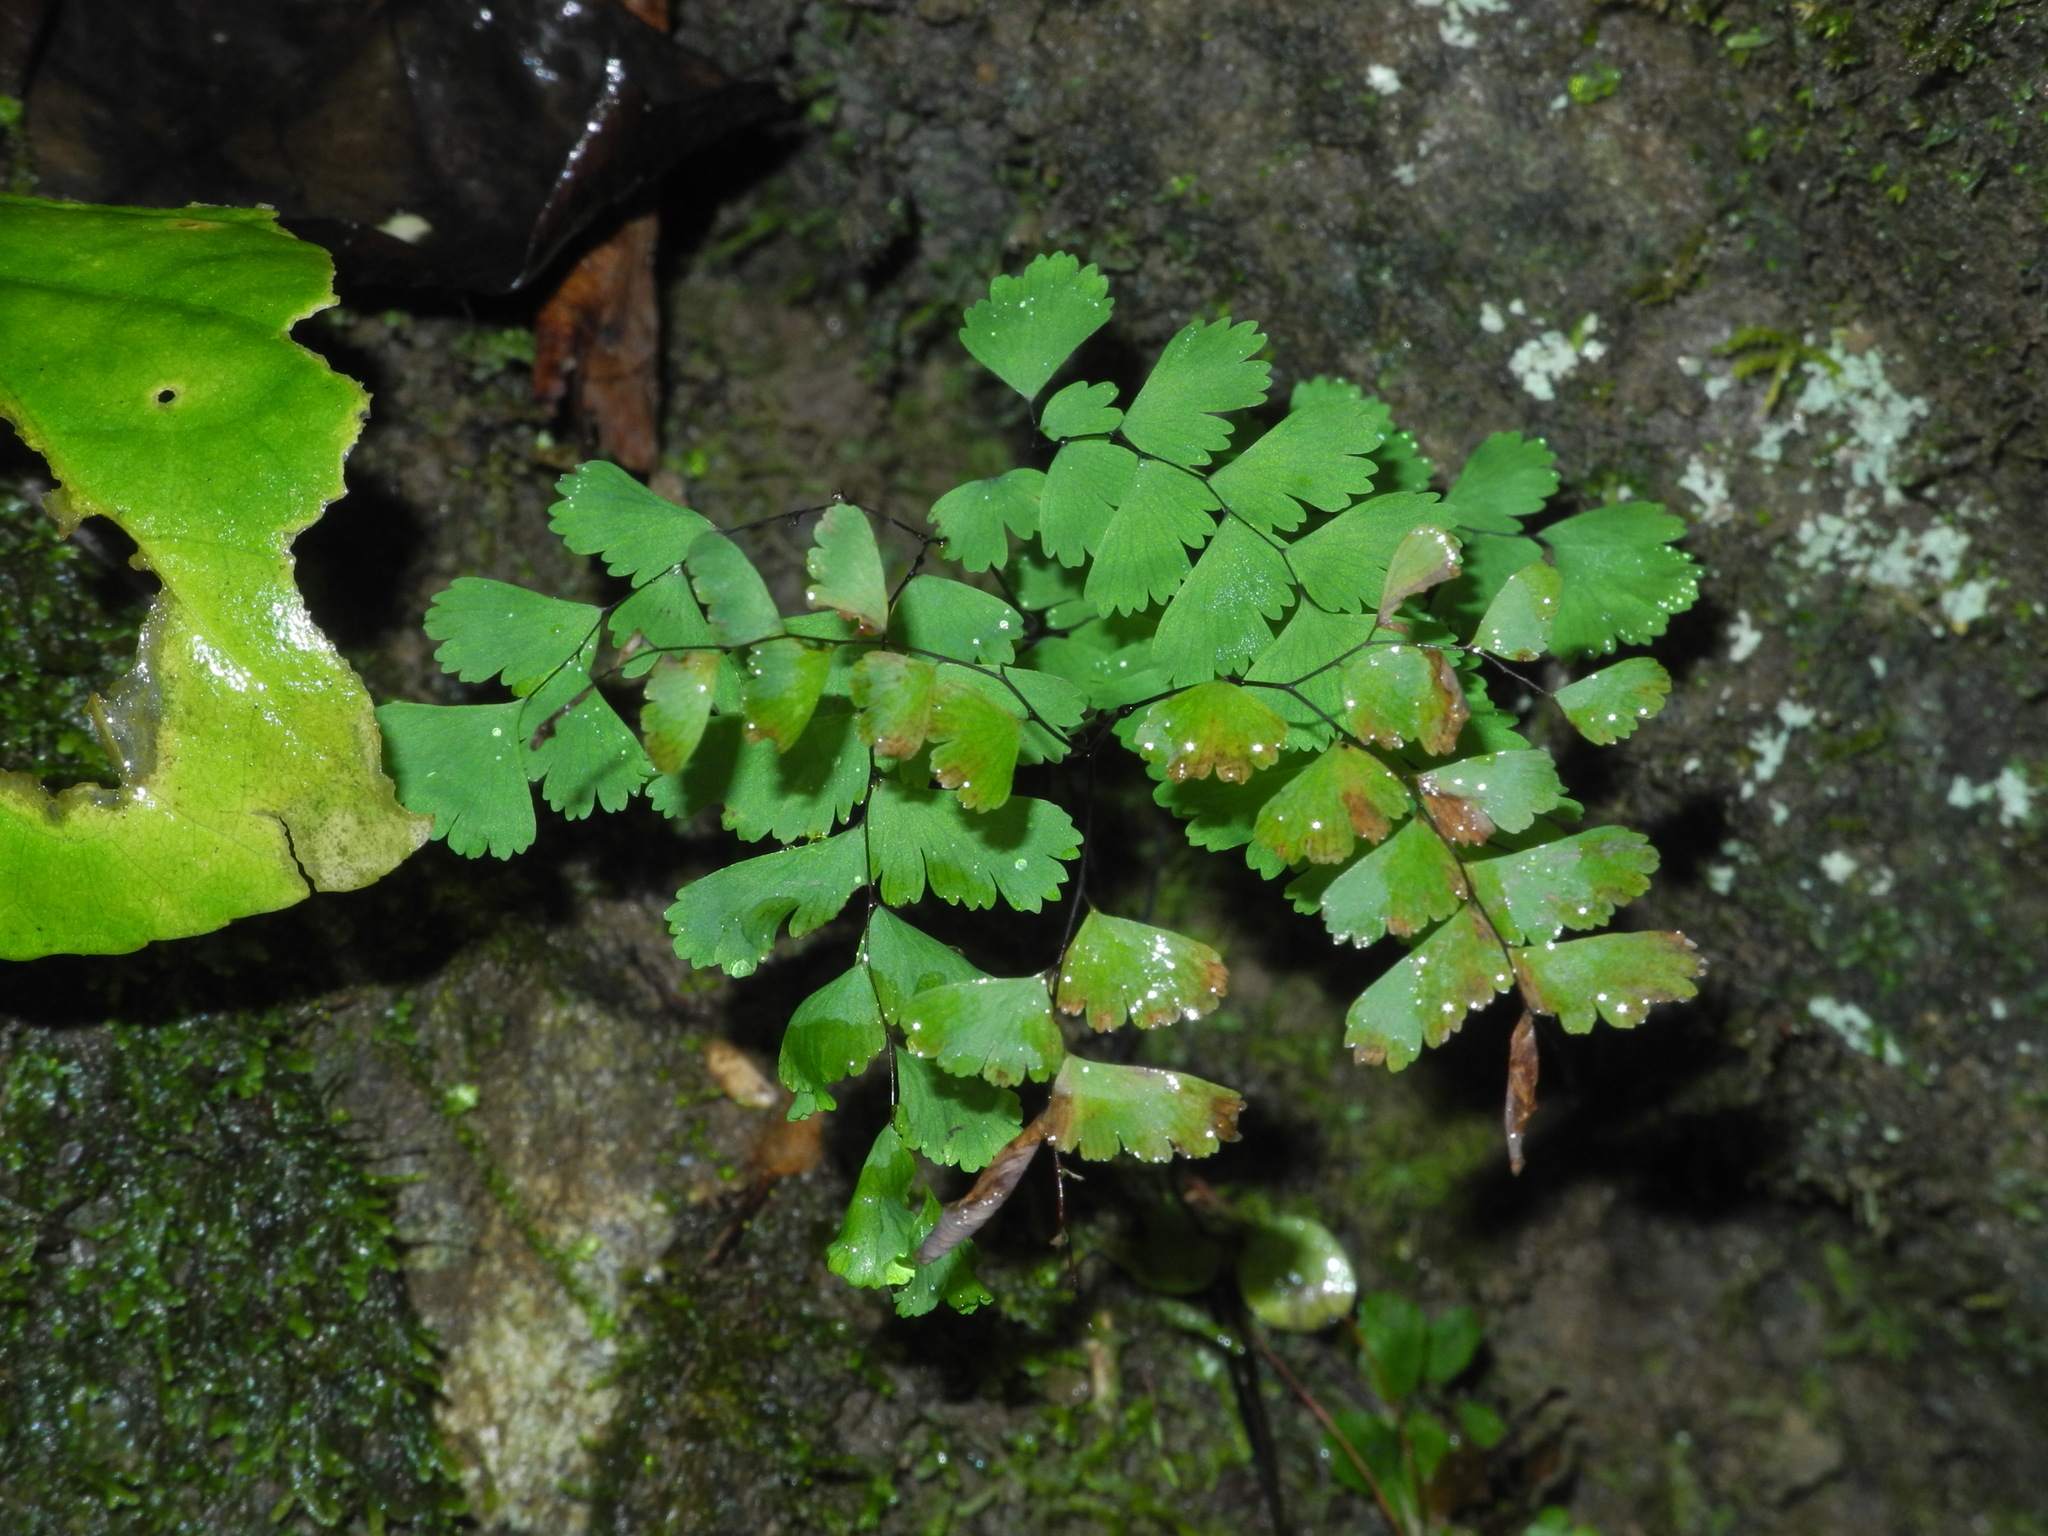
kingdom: Plantae
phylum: Tracheophyta
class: Polypodiopsida
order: Polypodiales
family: Pteridaceae
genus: Adiantum
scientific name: Adiantum pedatum
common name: Five-finger fern
